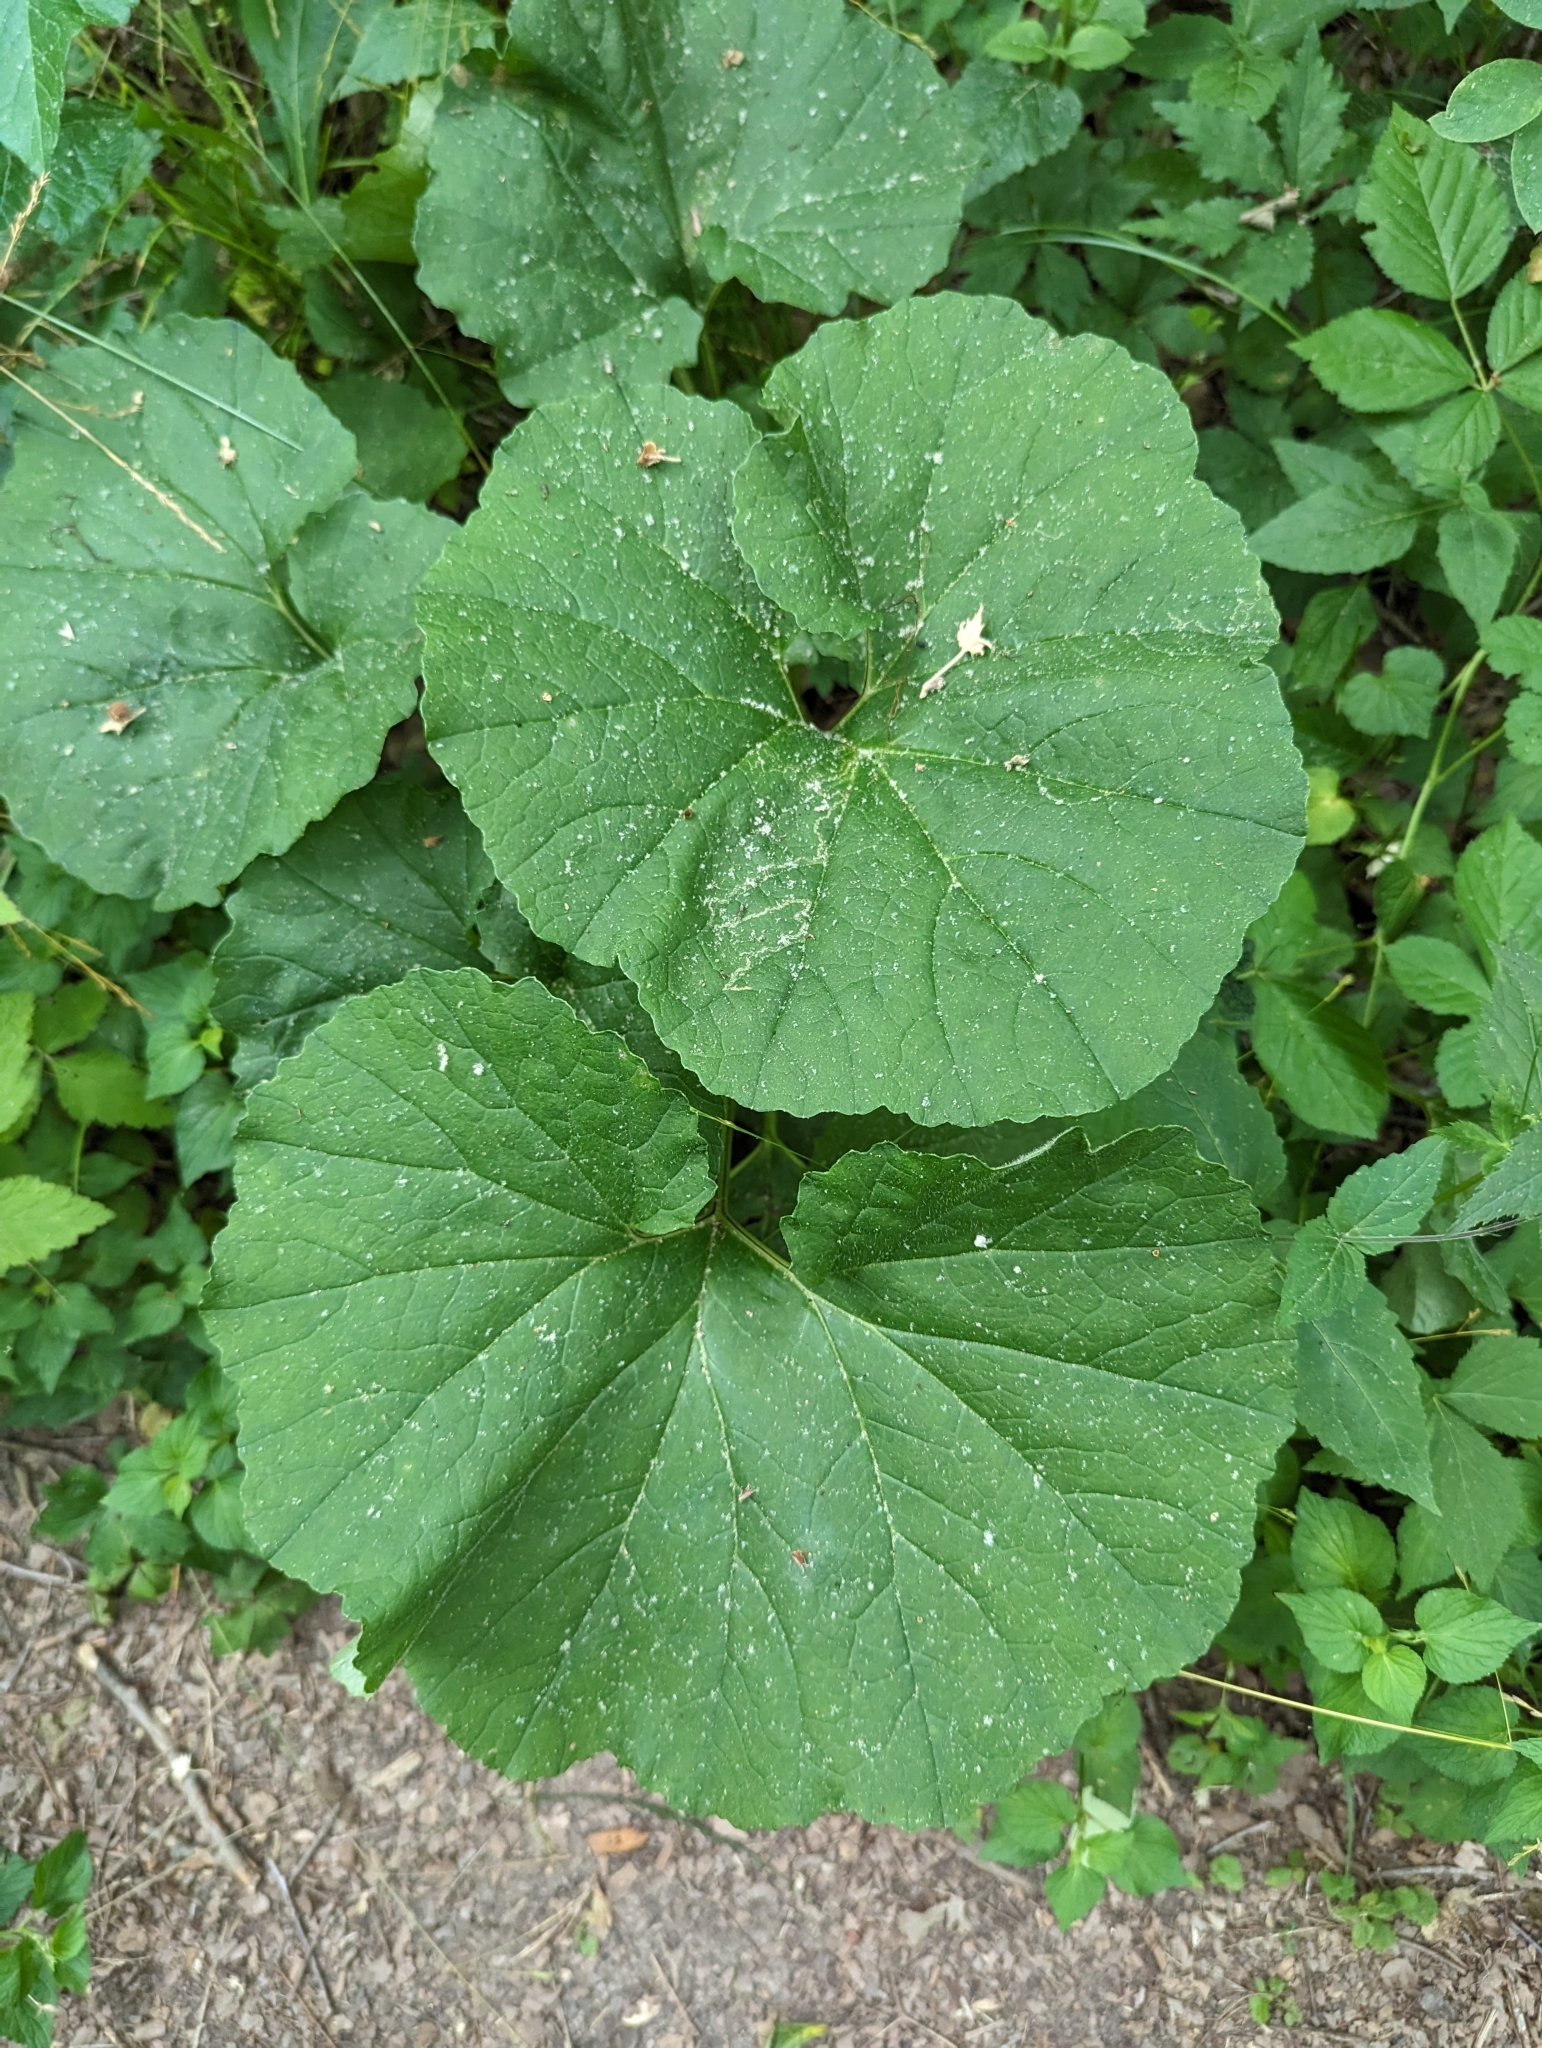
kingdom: Plantae
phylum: Tracheophyta
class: Magnoliopsida
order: Asterales
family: Asteraceae
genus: Arnoglossum
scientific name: Arnoglossum reniforme
